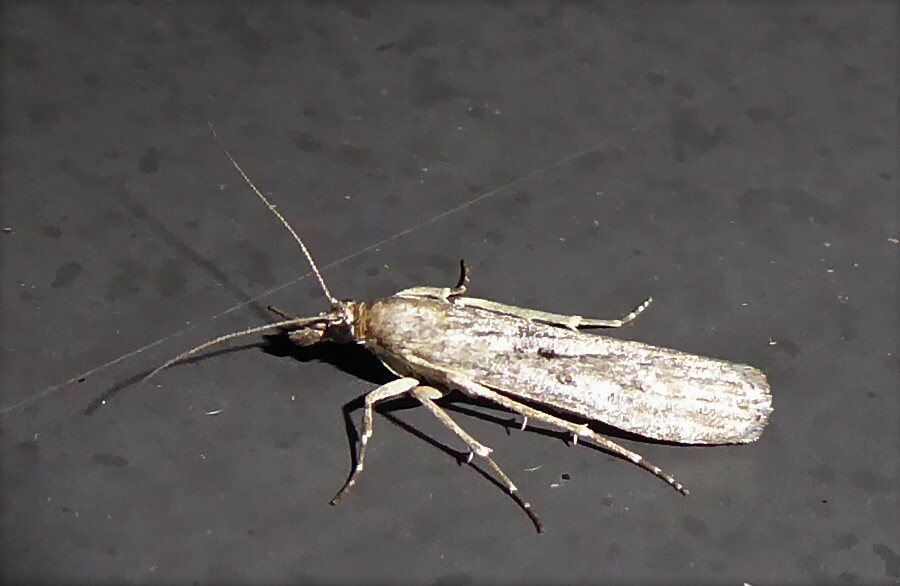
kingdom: Animalia
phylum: Arthropoda
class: Insecta
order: Lepidoptera
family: Crambidae
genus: Eudonia
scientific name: Eudonia leptalea
